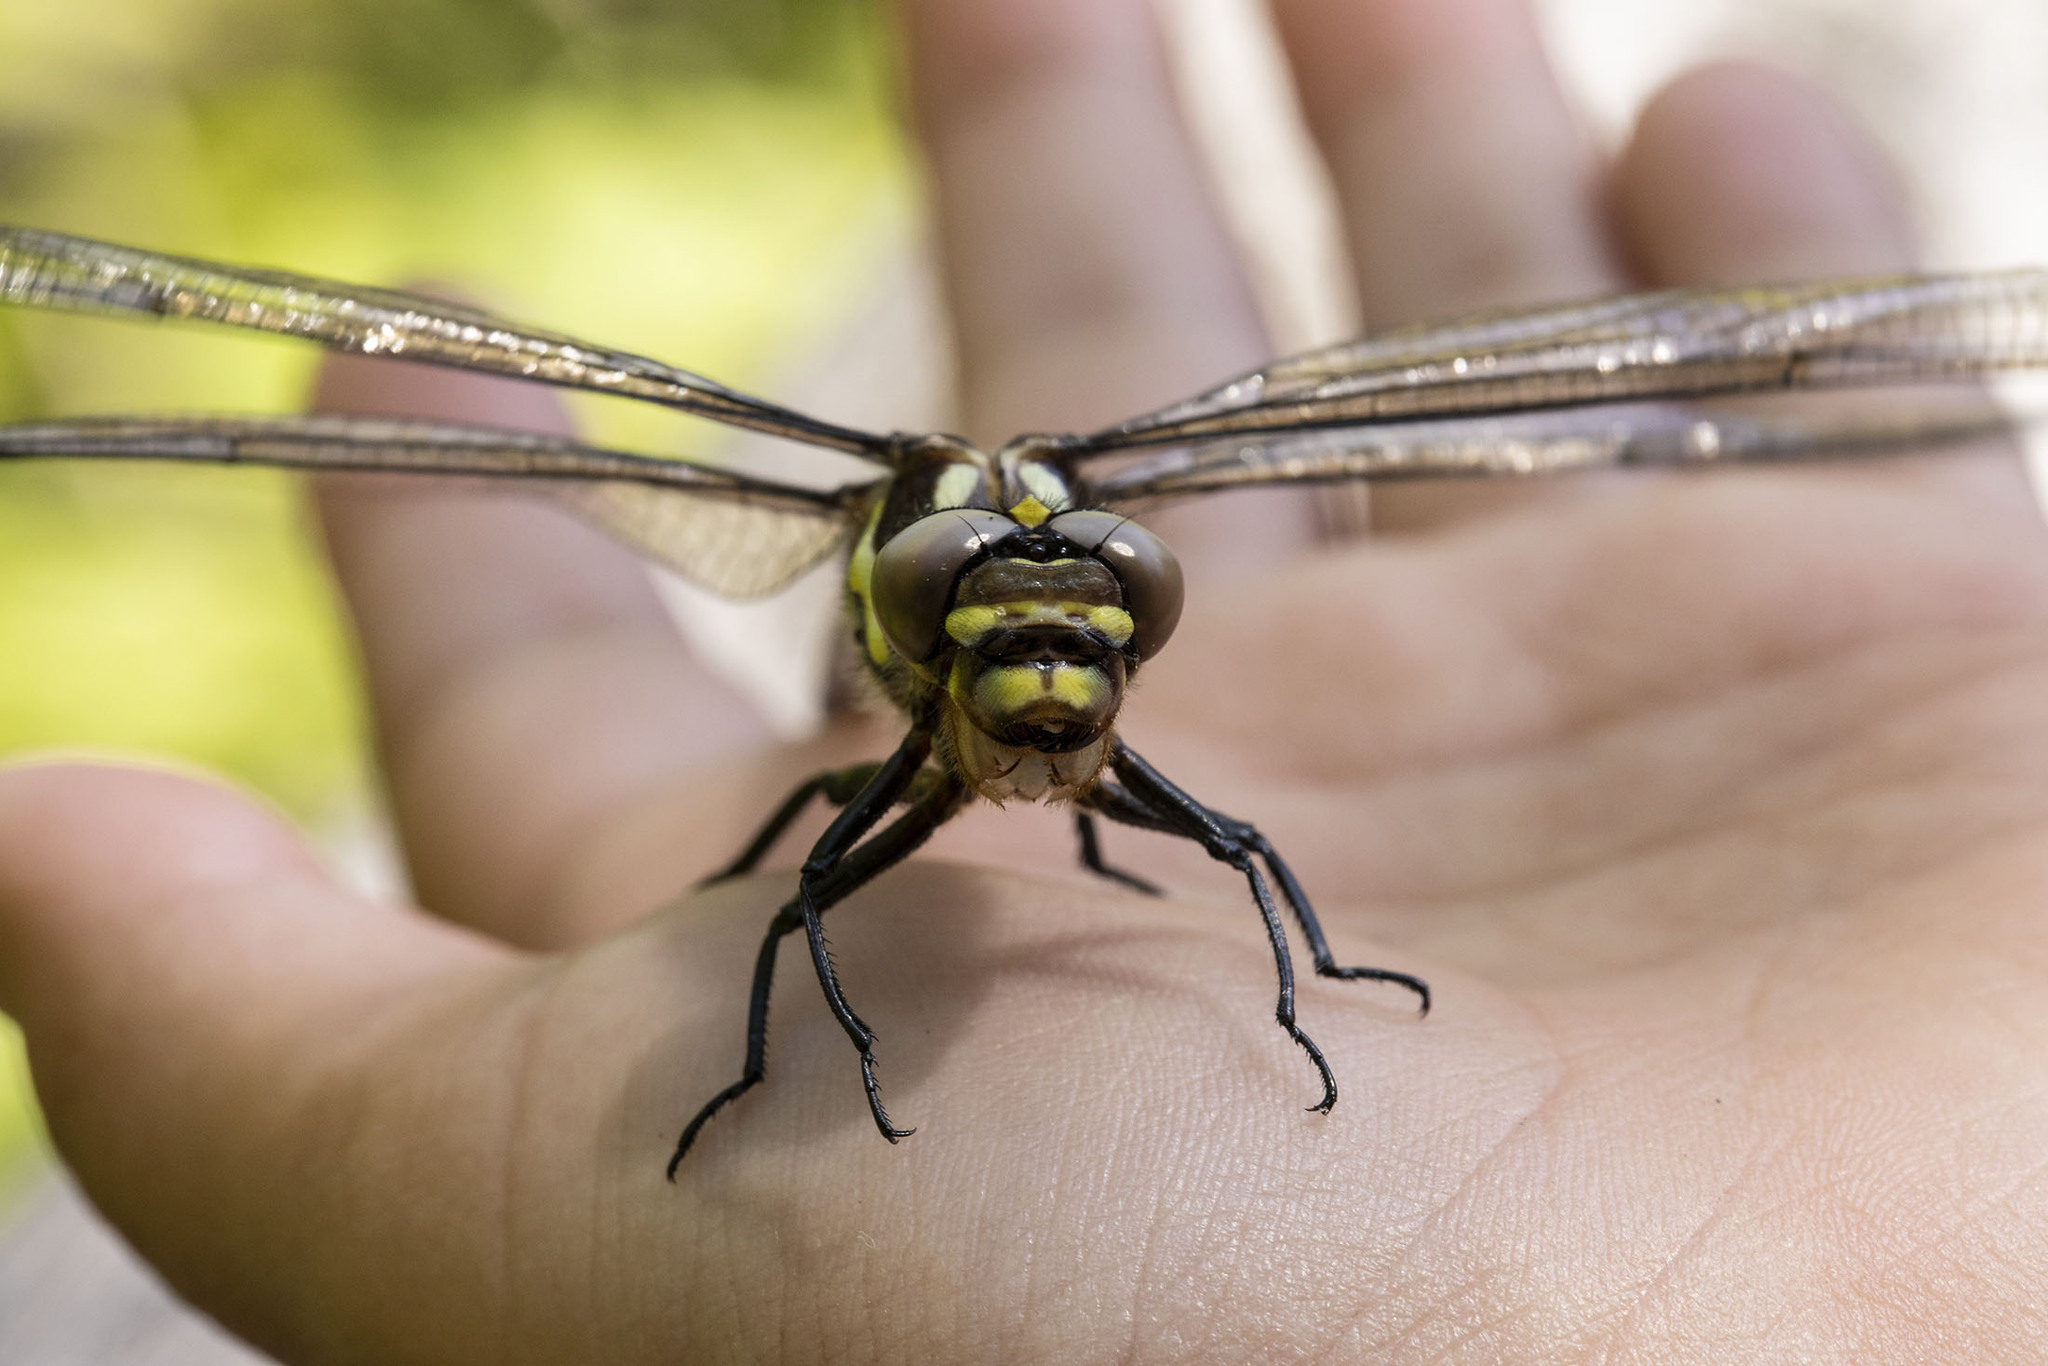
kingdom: Animalia
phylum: Arthropoda
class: Insecta
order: Odonata
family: Cordulegastridae
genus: Cordulegaster
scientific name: Cordulegaster obliqua
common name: Arrowhead spiketail
